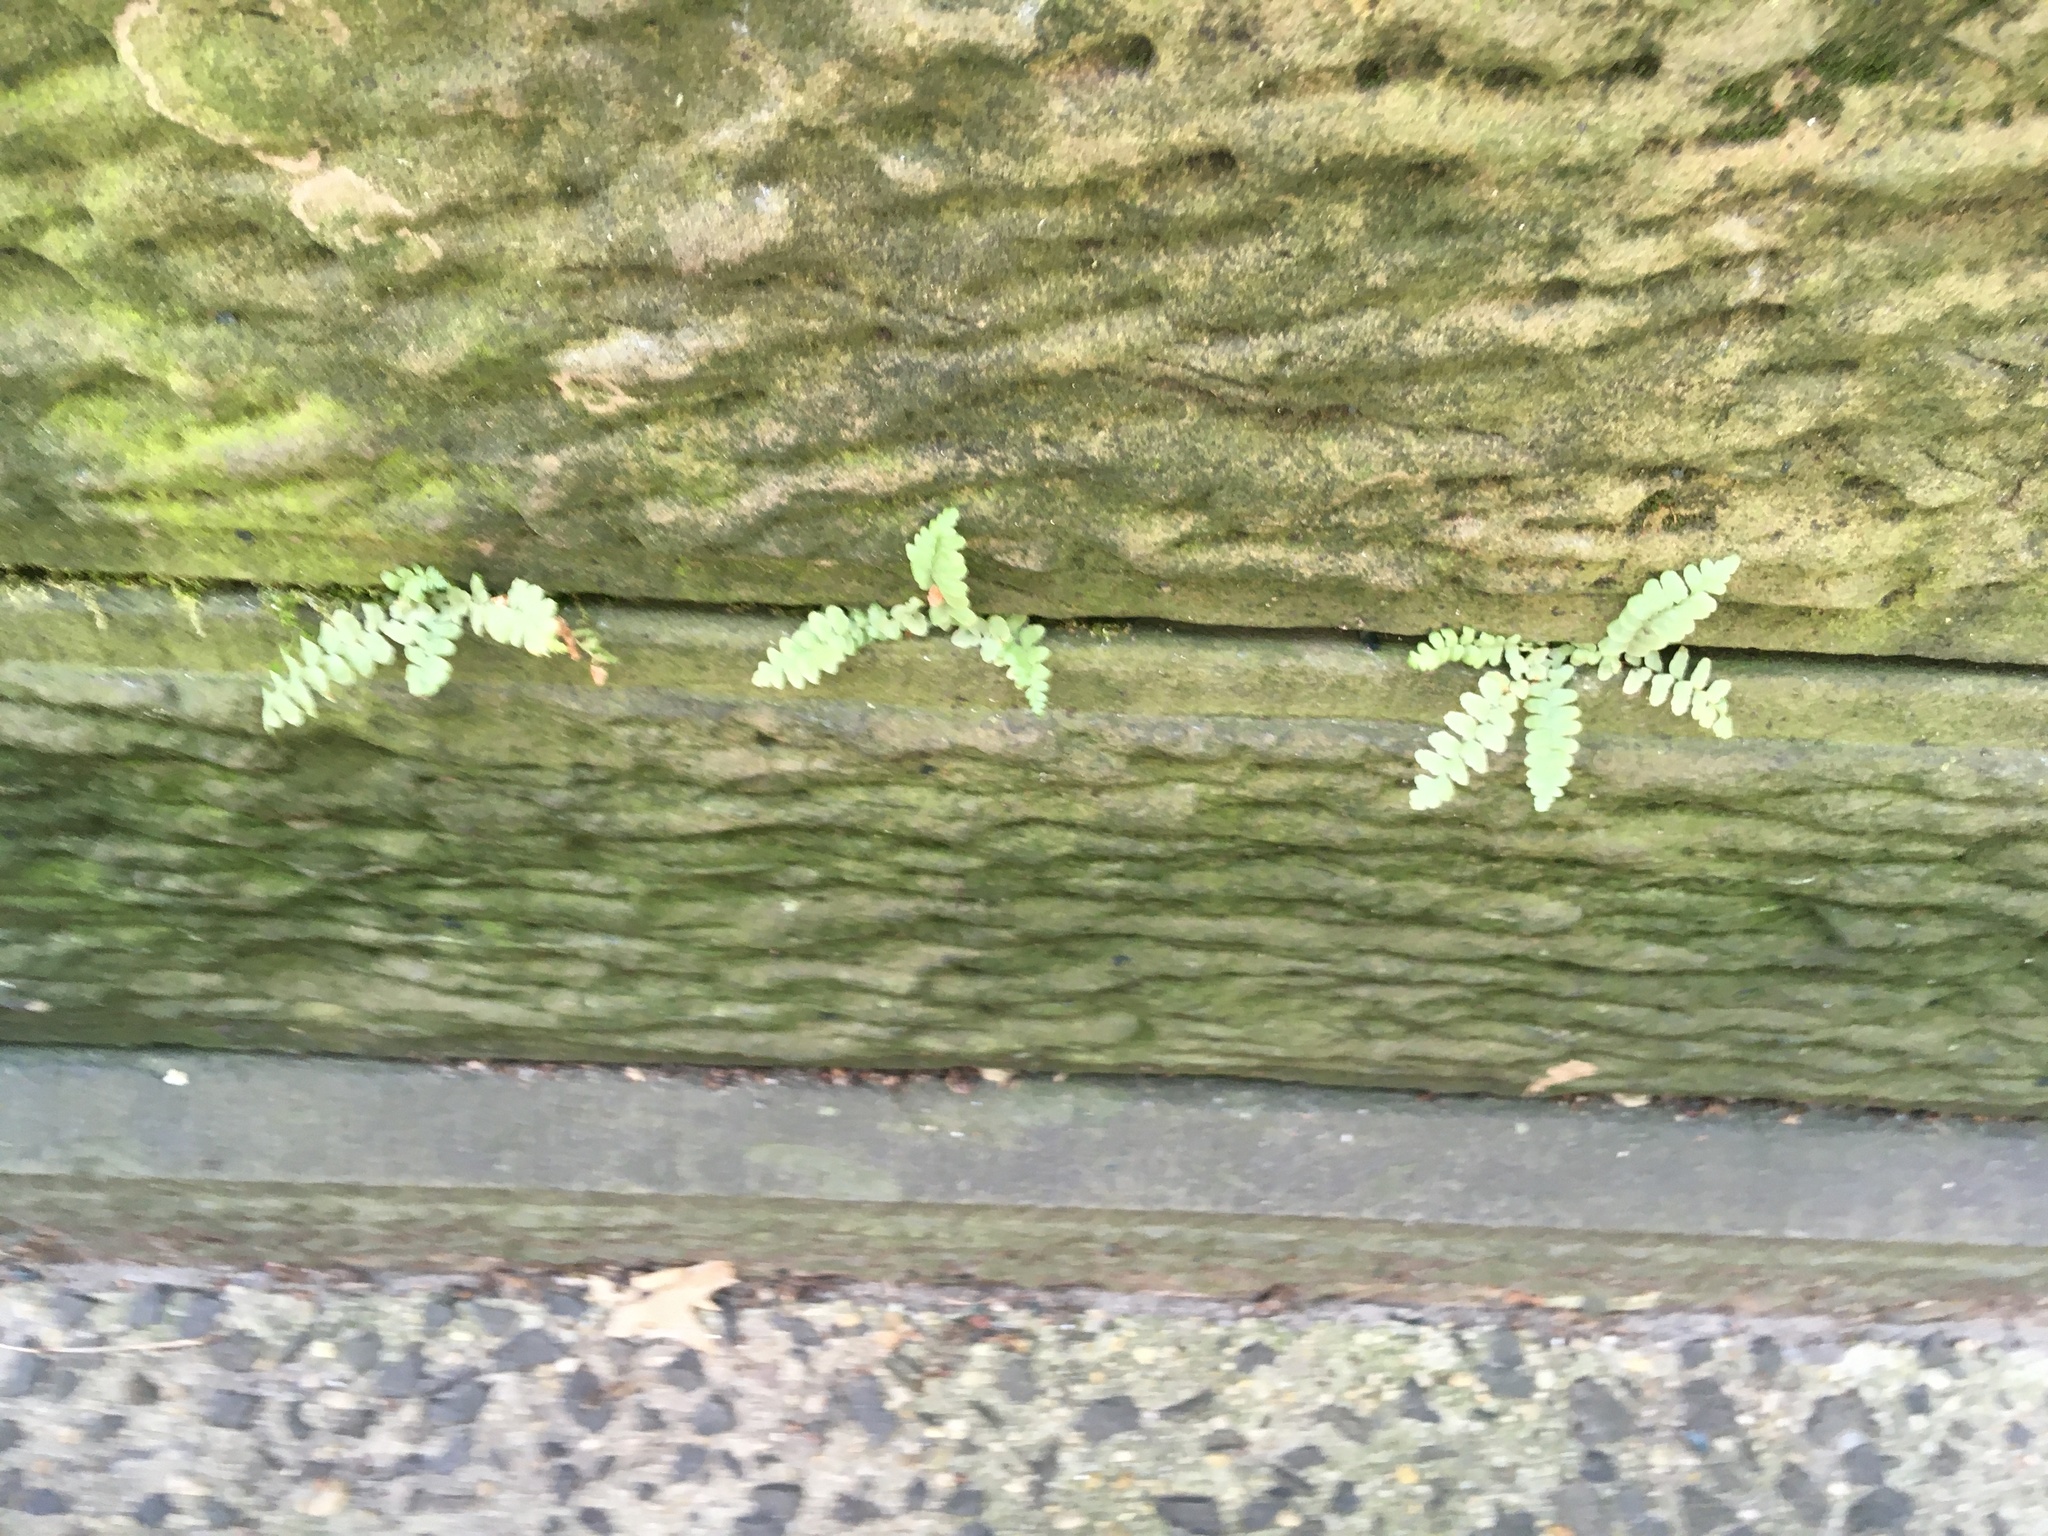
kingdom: Plantae
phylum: Tracheophyta
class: Polypodiopsida
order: Polypodiales
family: Aspleniaceae
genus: Asplenium
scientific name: Asplenium platyneuron
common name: Ebony spleenwort
